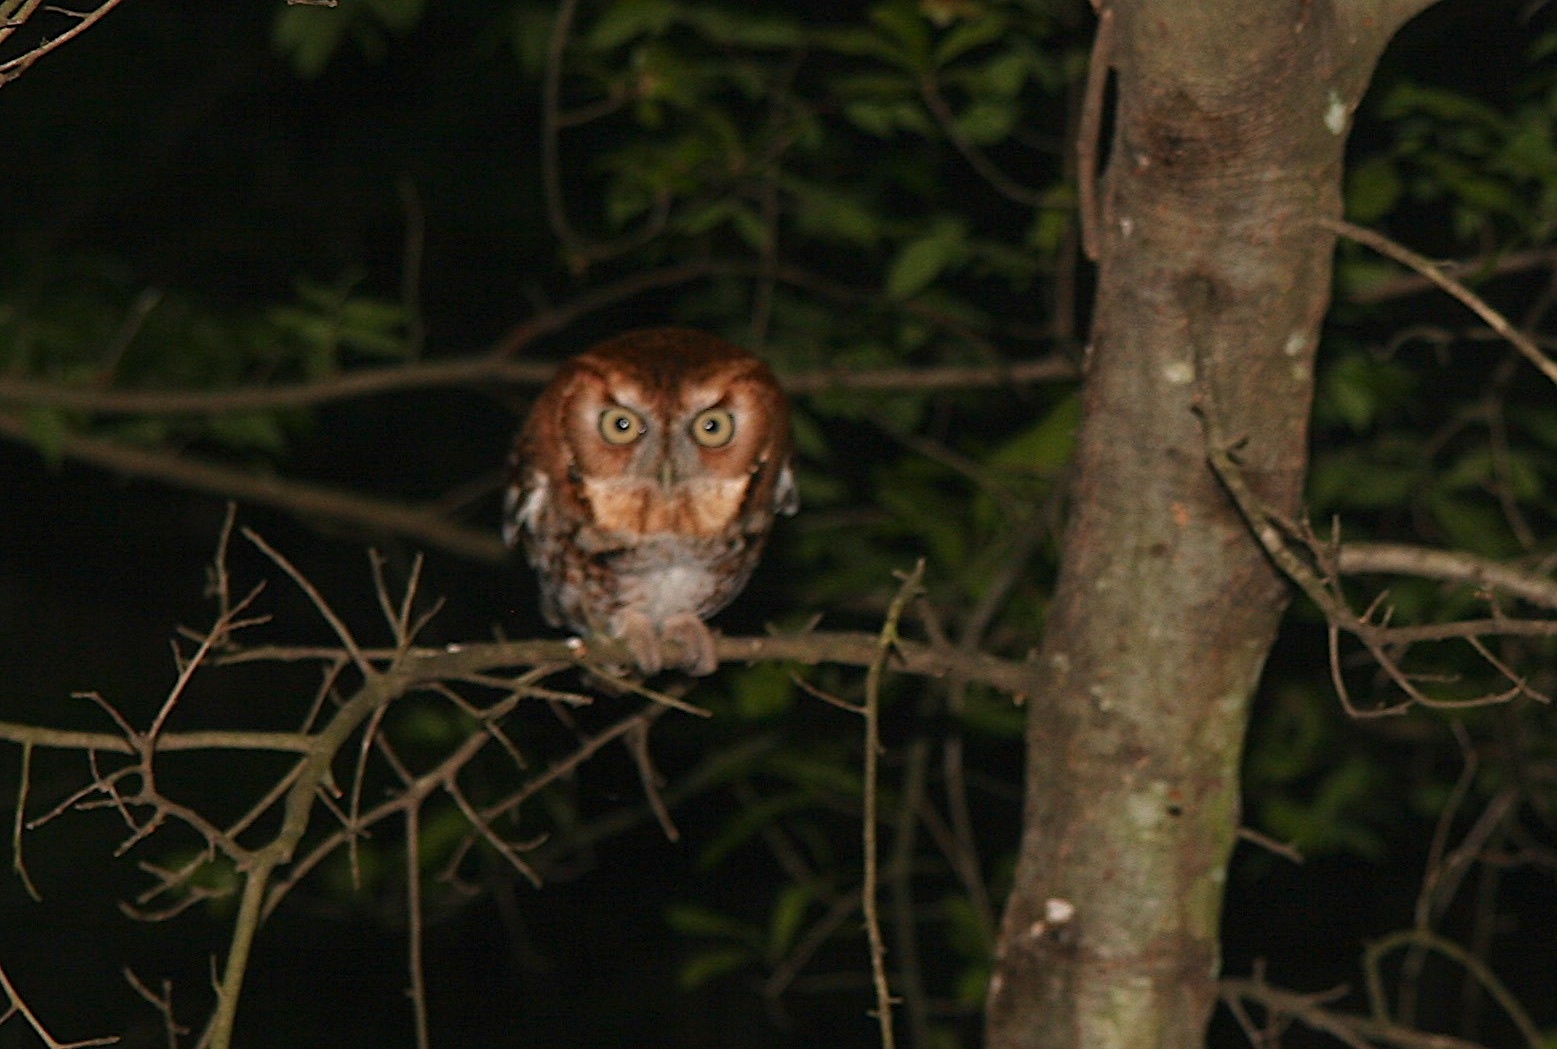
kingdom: Animalia
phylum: Chordata
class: Aves
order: Strigiformes
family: Strigidae
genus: Megascops
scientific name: Megascops asio
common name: Eastern screech-owl
